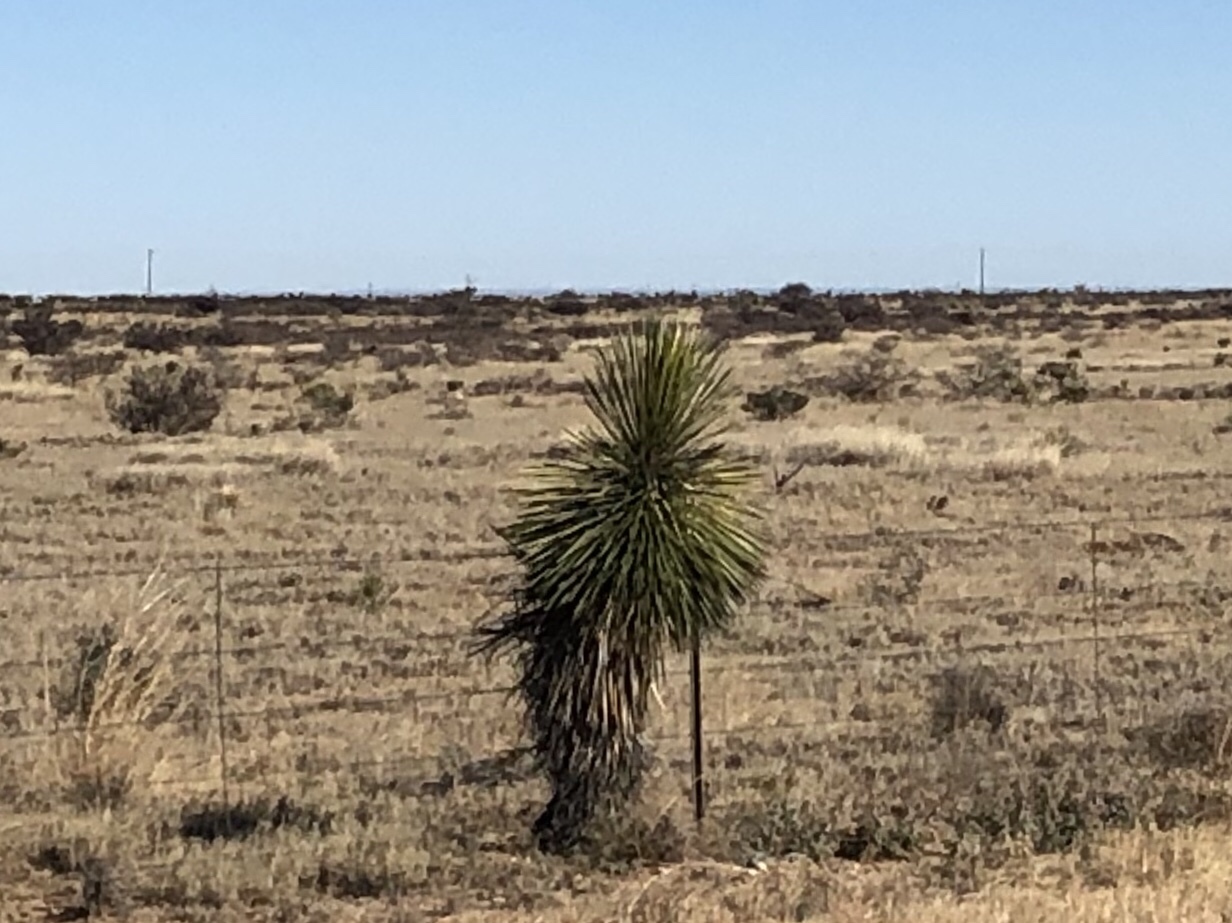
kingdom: Plantae
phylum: Tracheophyta
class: Liliopsida
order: Asparagales
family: Asparagaceae
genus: Yucca
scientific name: Yucca elata
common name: Palmella
